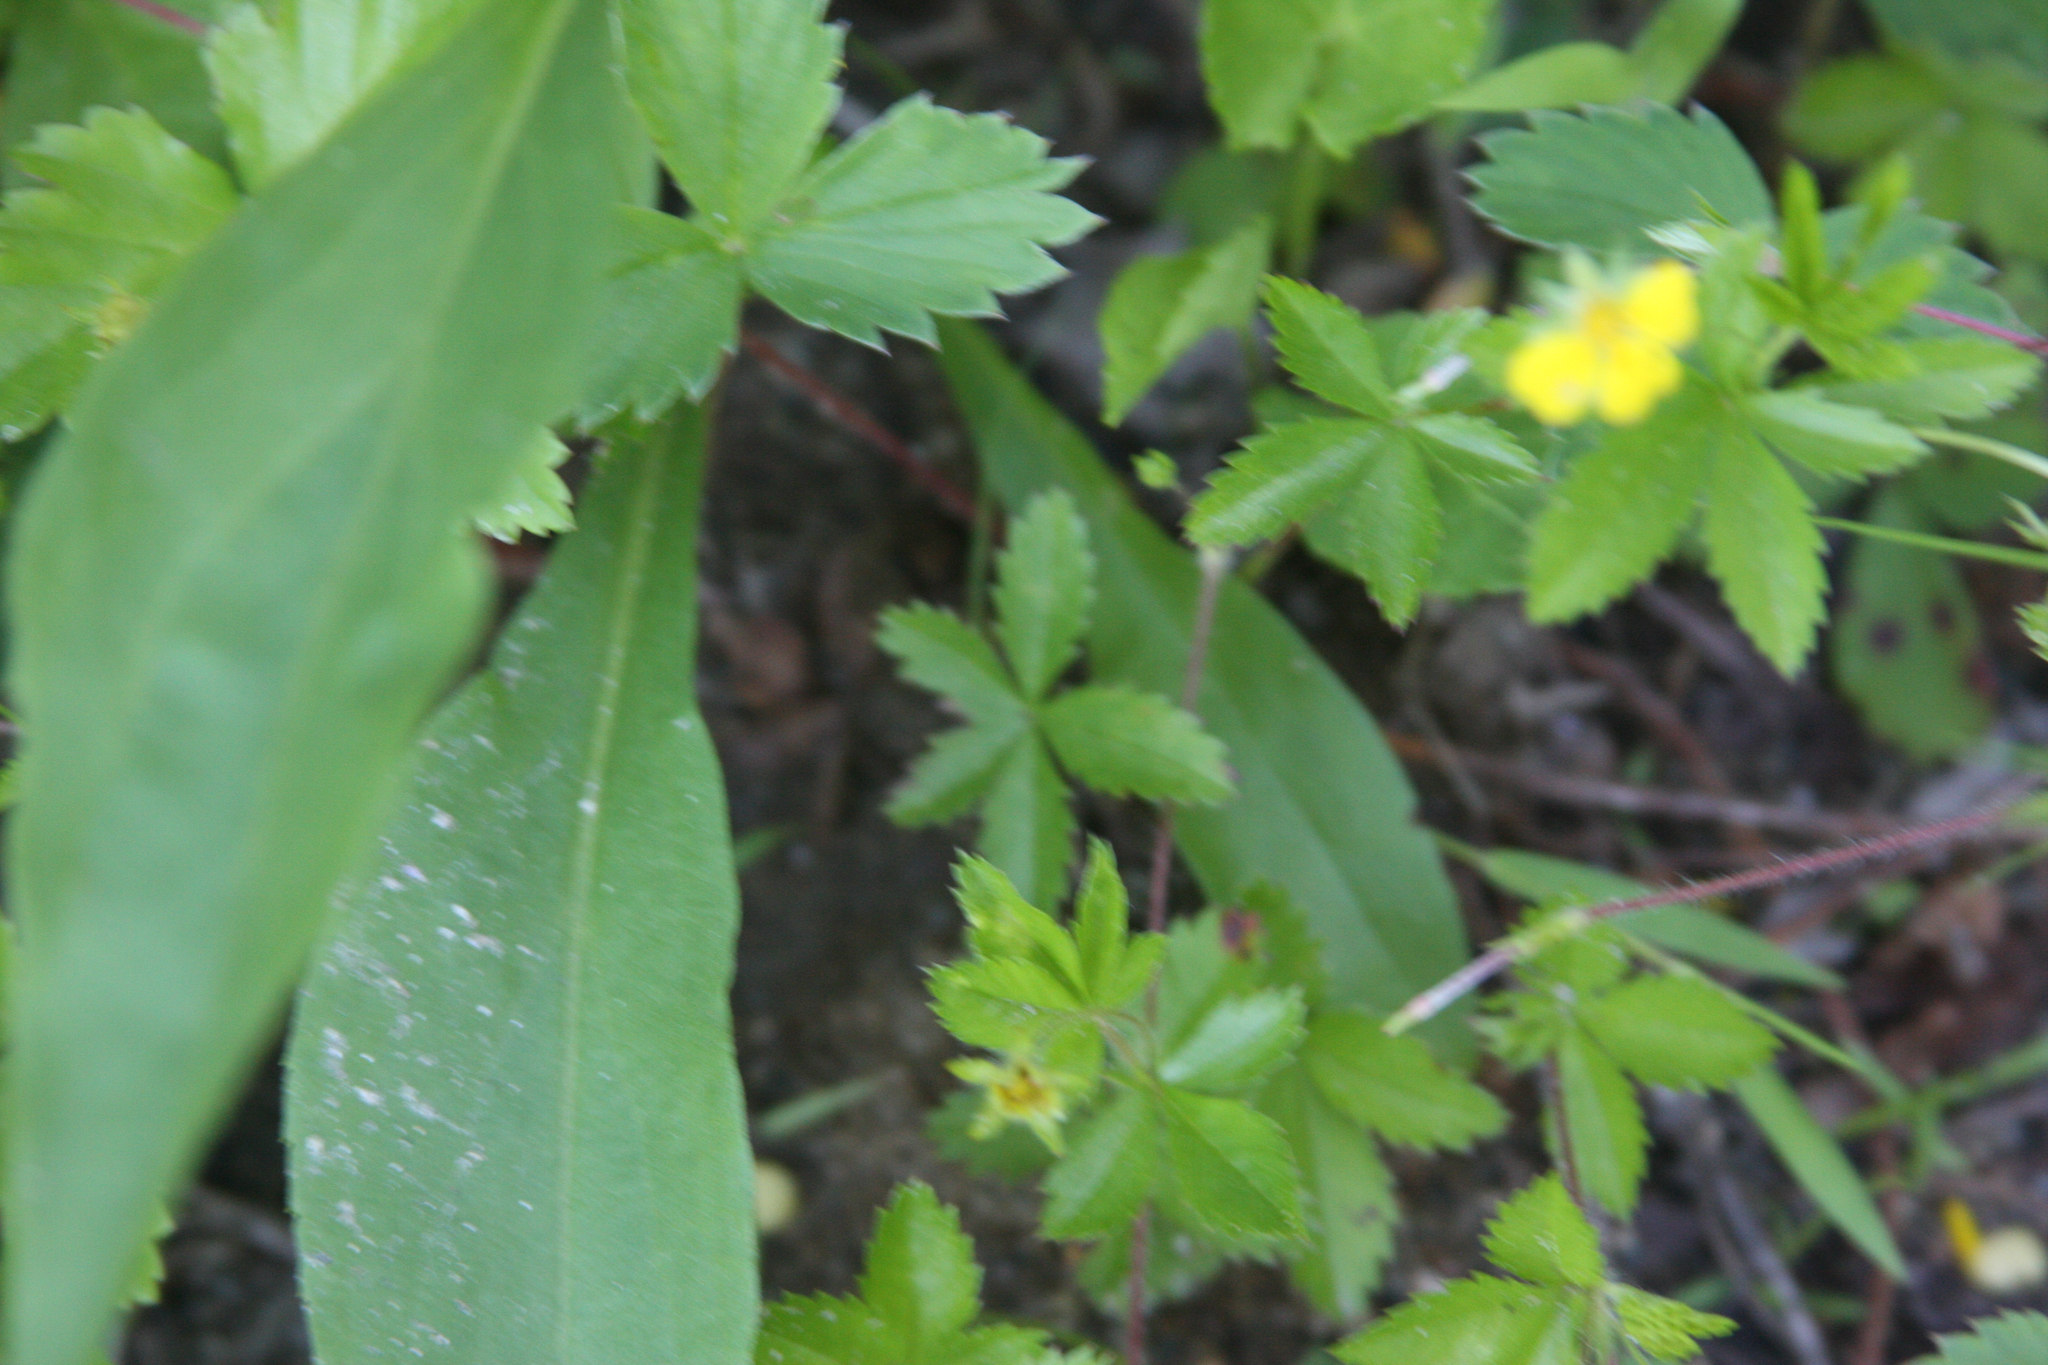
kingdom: Plantae
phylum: Tracheophyta
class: Magnoliopsida
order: Rosales
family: Rosaceae
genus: Potentilla
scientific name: Potentilla simplex
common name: Old field cinquefoil
